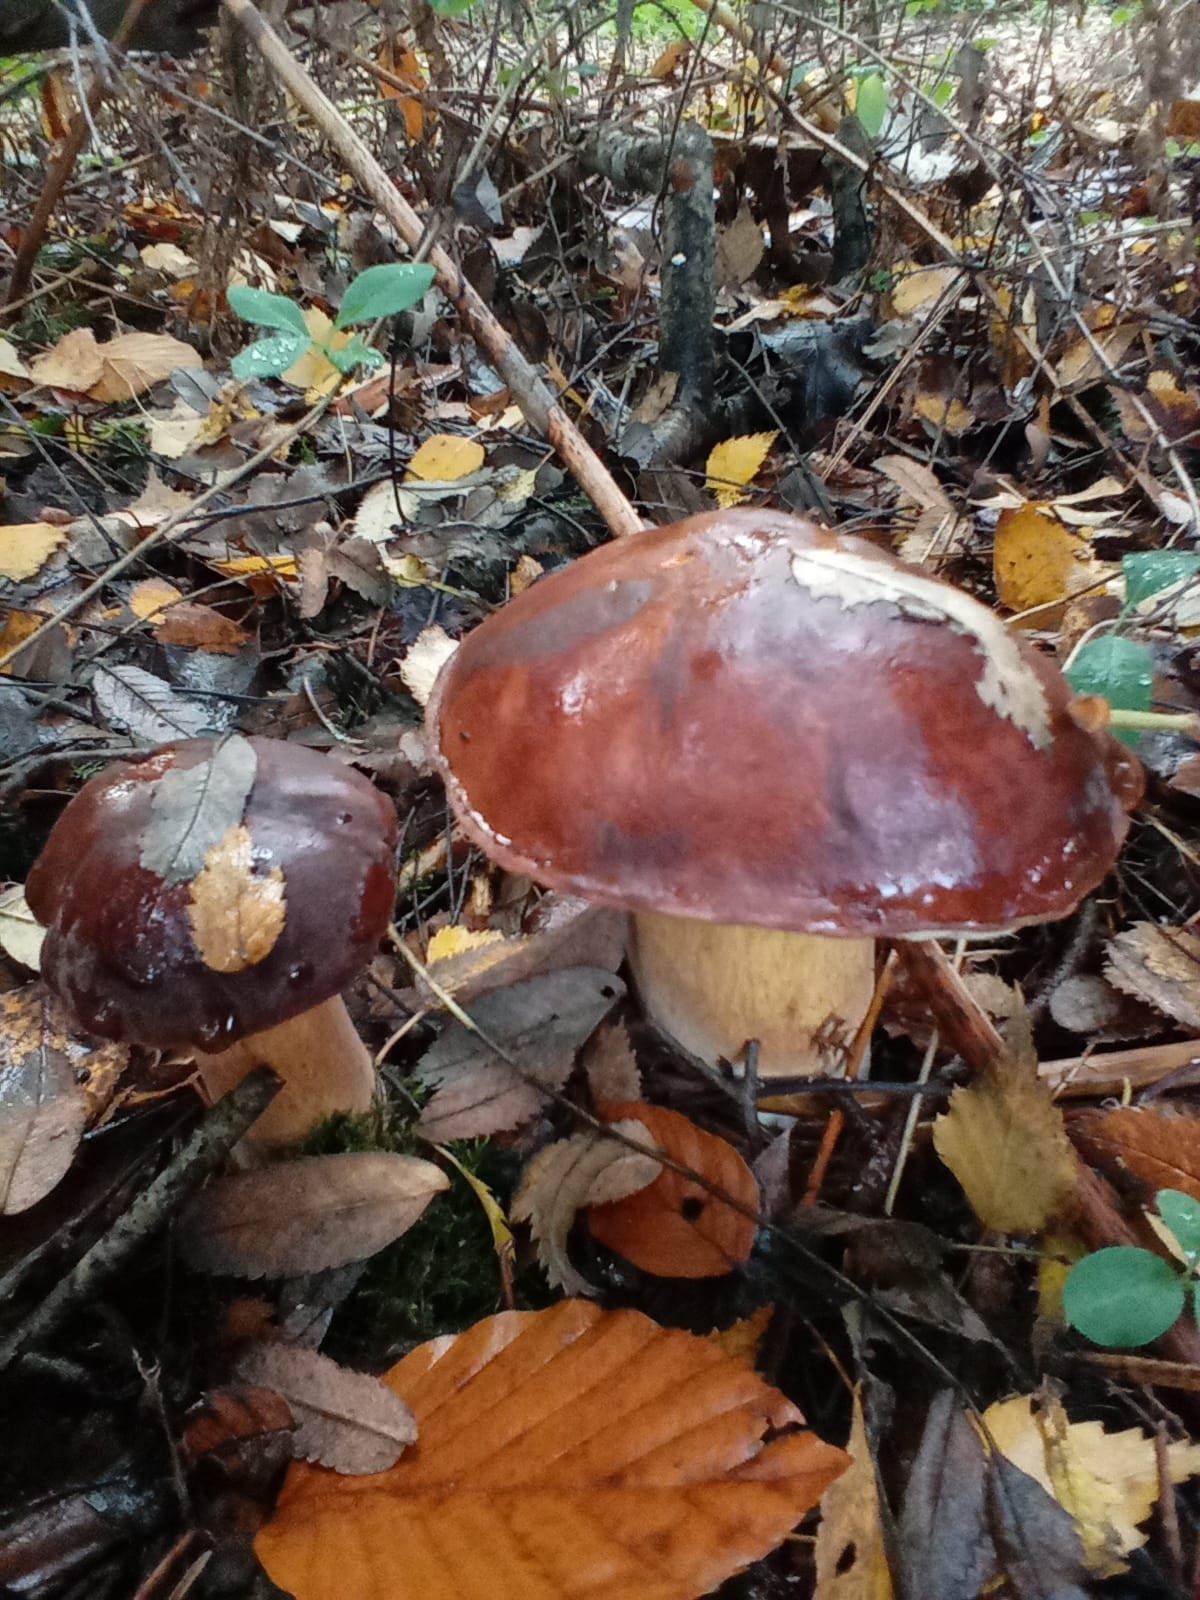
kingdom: Fungi
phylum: Basidiomycota
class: Agaricomycetes
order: Boletales
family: Boletaceae
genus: Imleria
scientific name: Imleria badia
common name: Bay bolete
